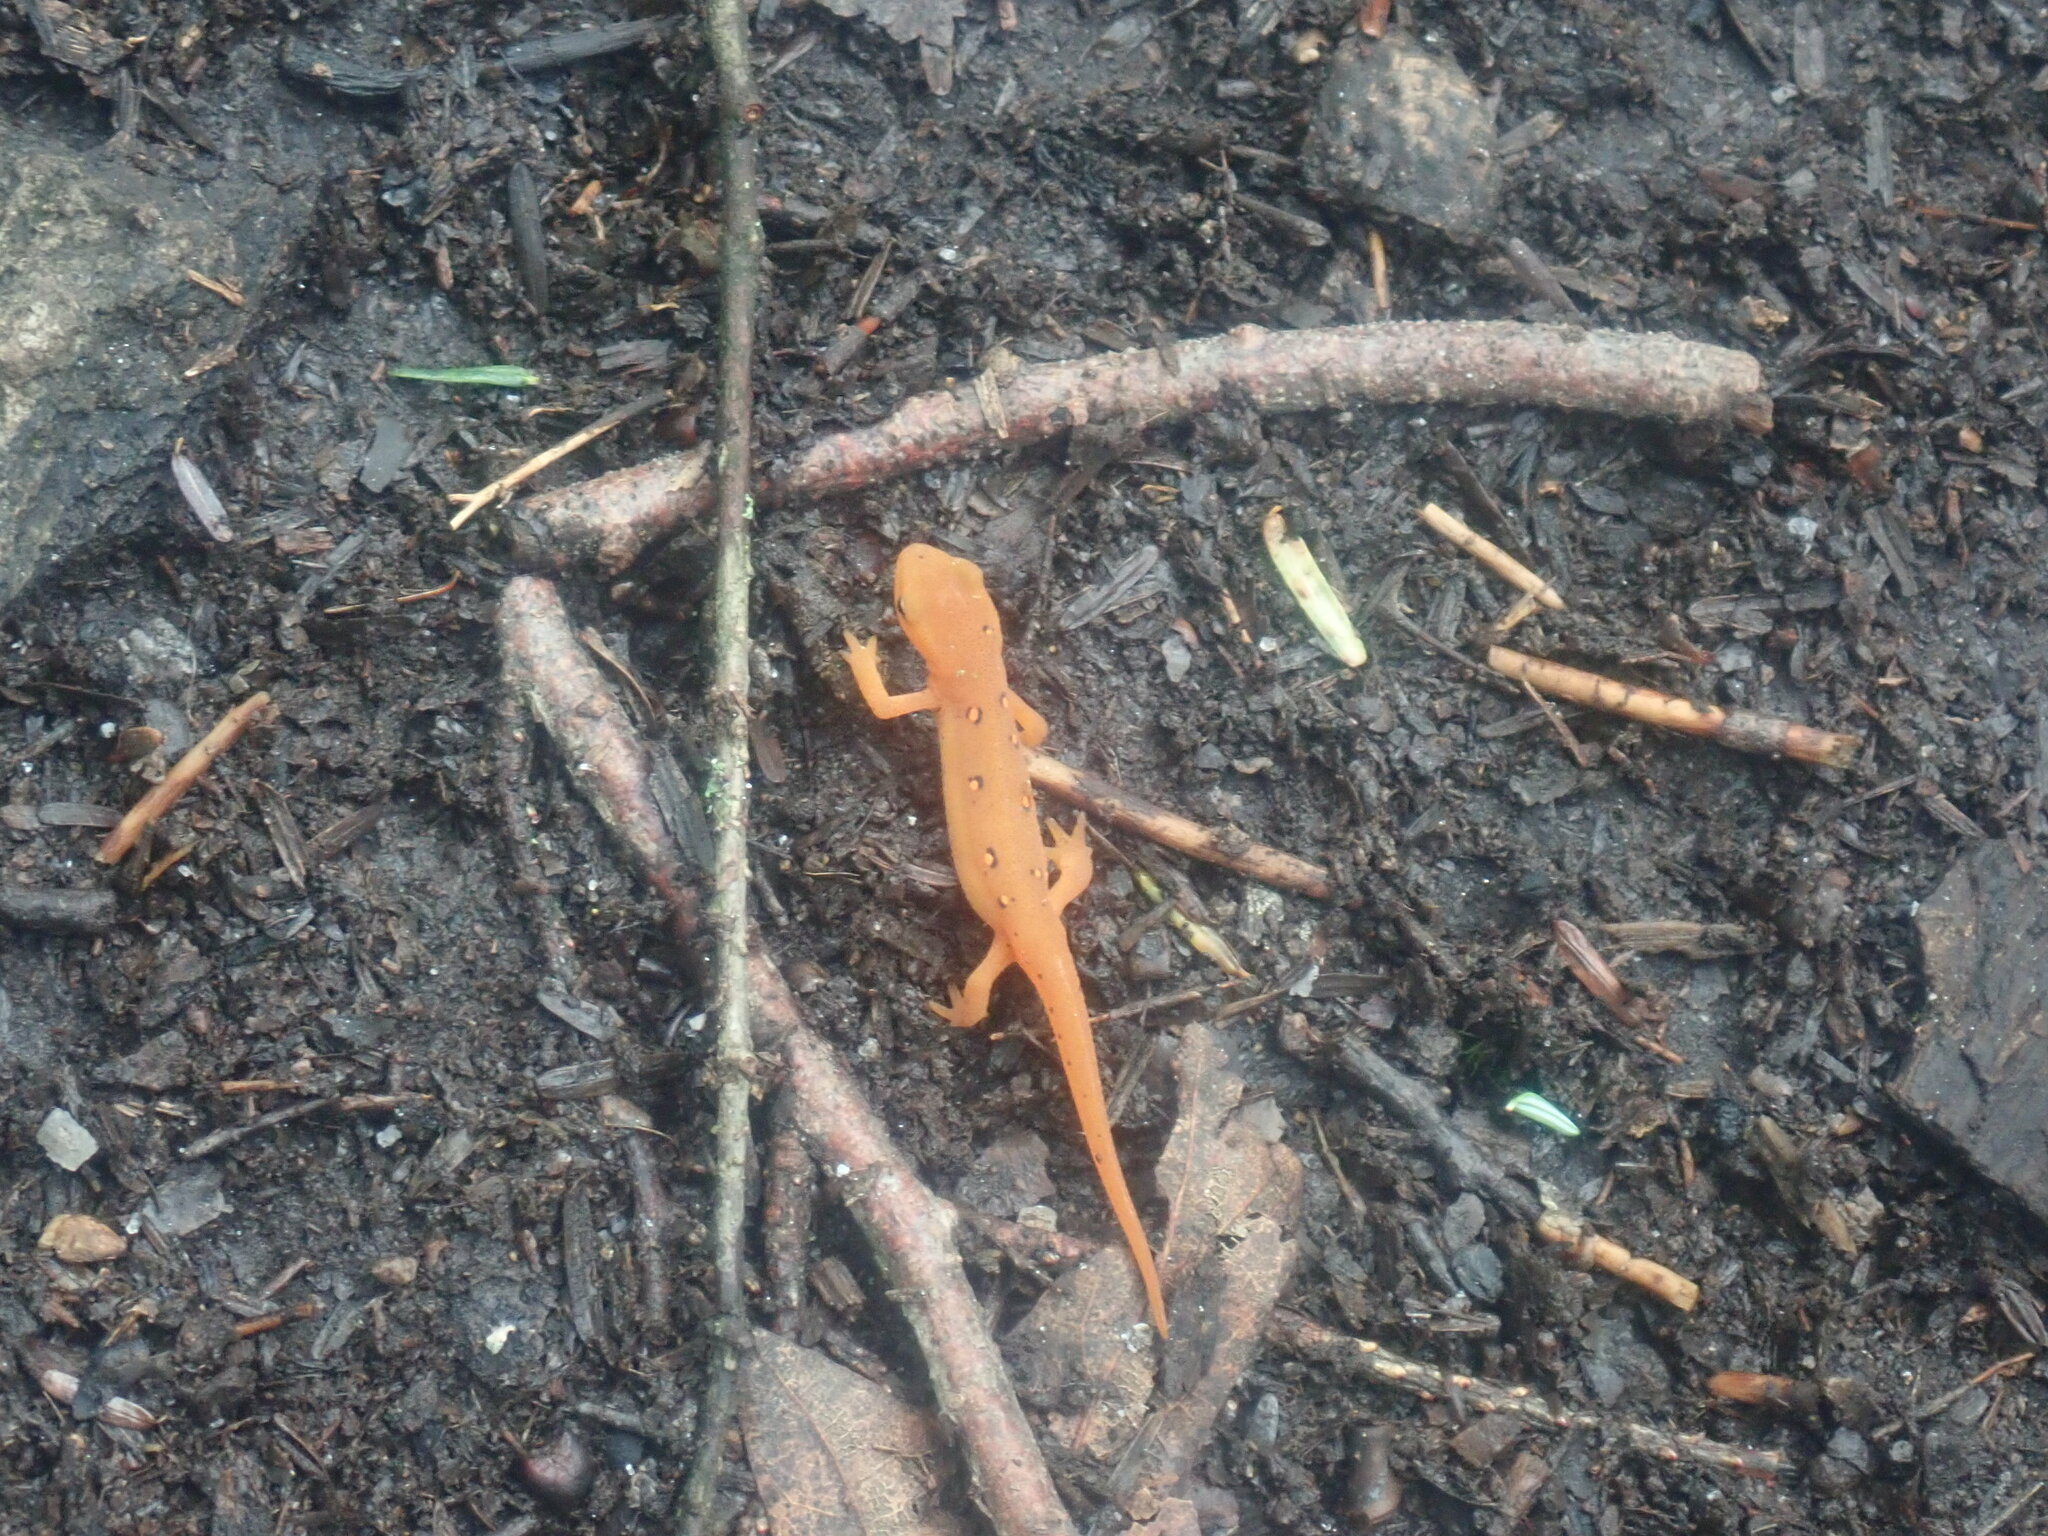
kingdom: Animalia
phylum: Chordata
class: Amphibia
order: Caudata
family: Salamandridae
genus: Notophthalmus
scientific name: Notophthalmus viridescens
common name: Eastern newt
